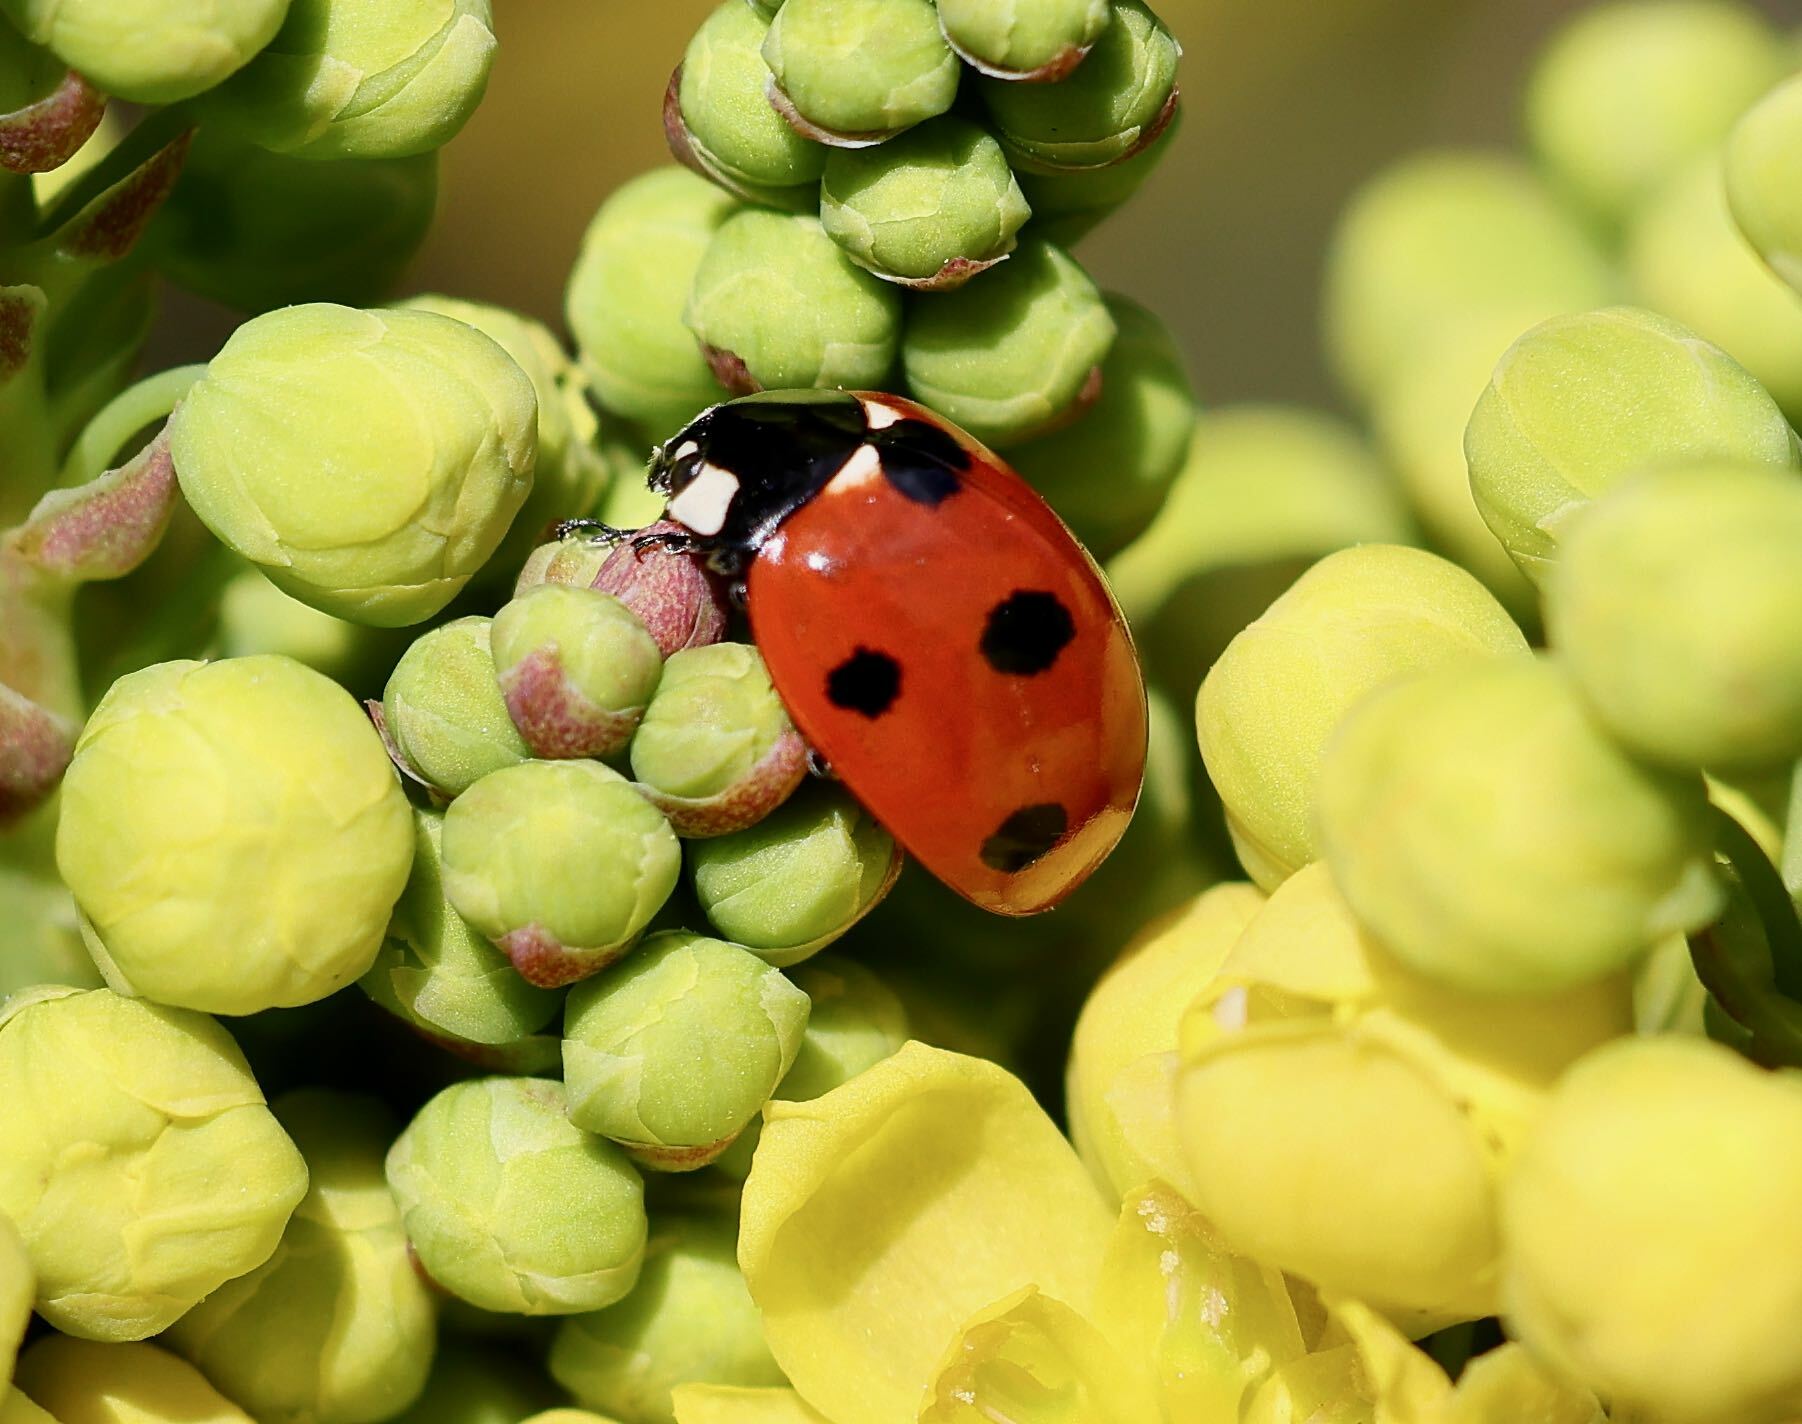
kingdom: Animalia
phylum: Arthropoda
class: Insecta
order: Coleoptera
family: Coccinellidae
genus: Coccinella
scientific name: Coccinella septempunctata
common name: Sevenspotted lady beetle
